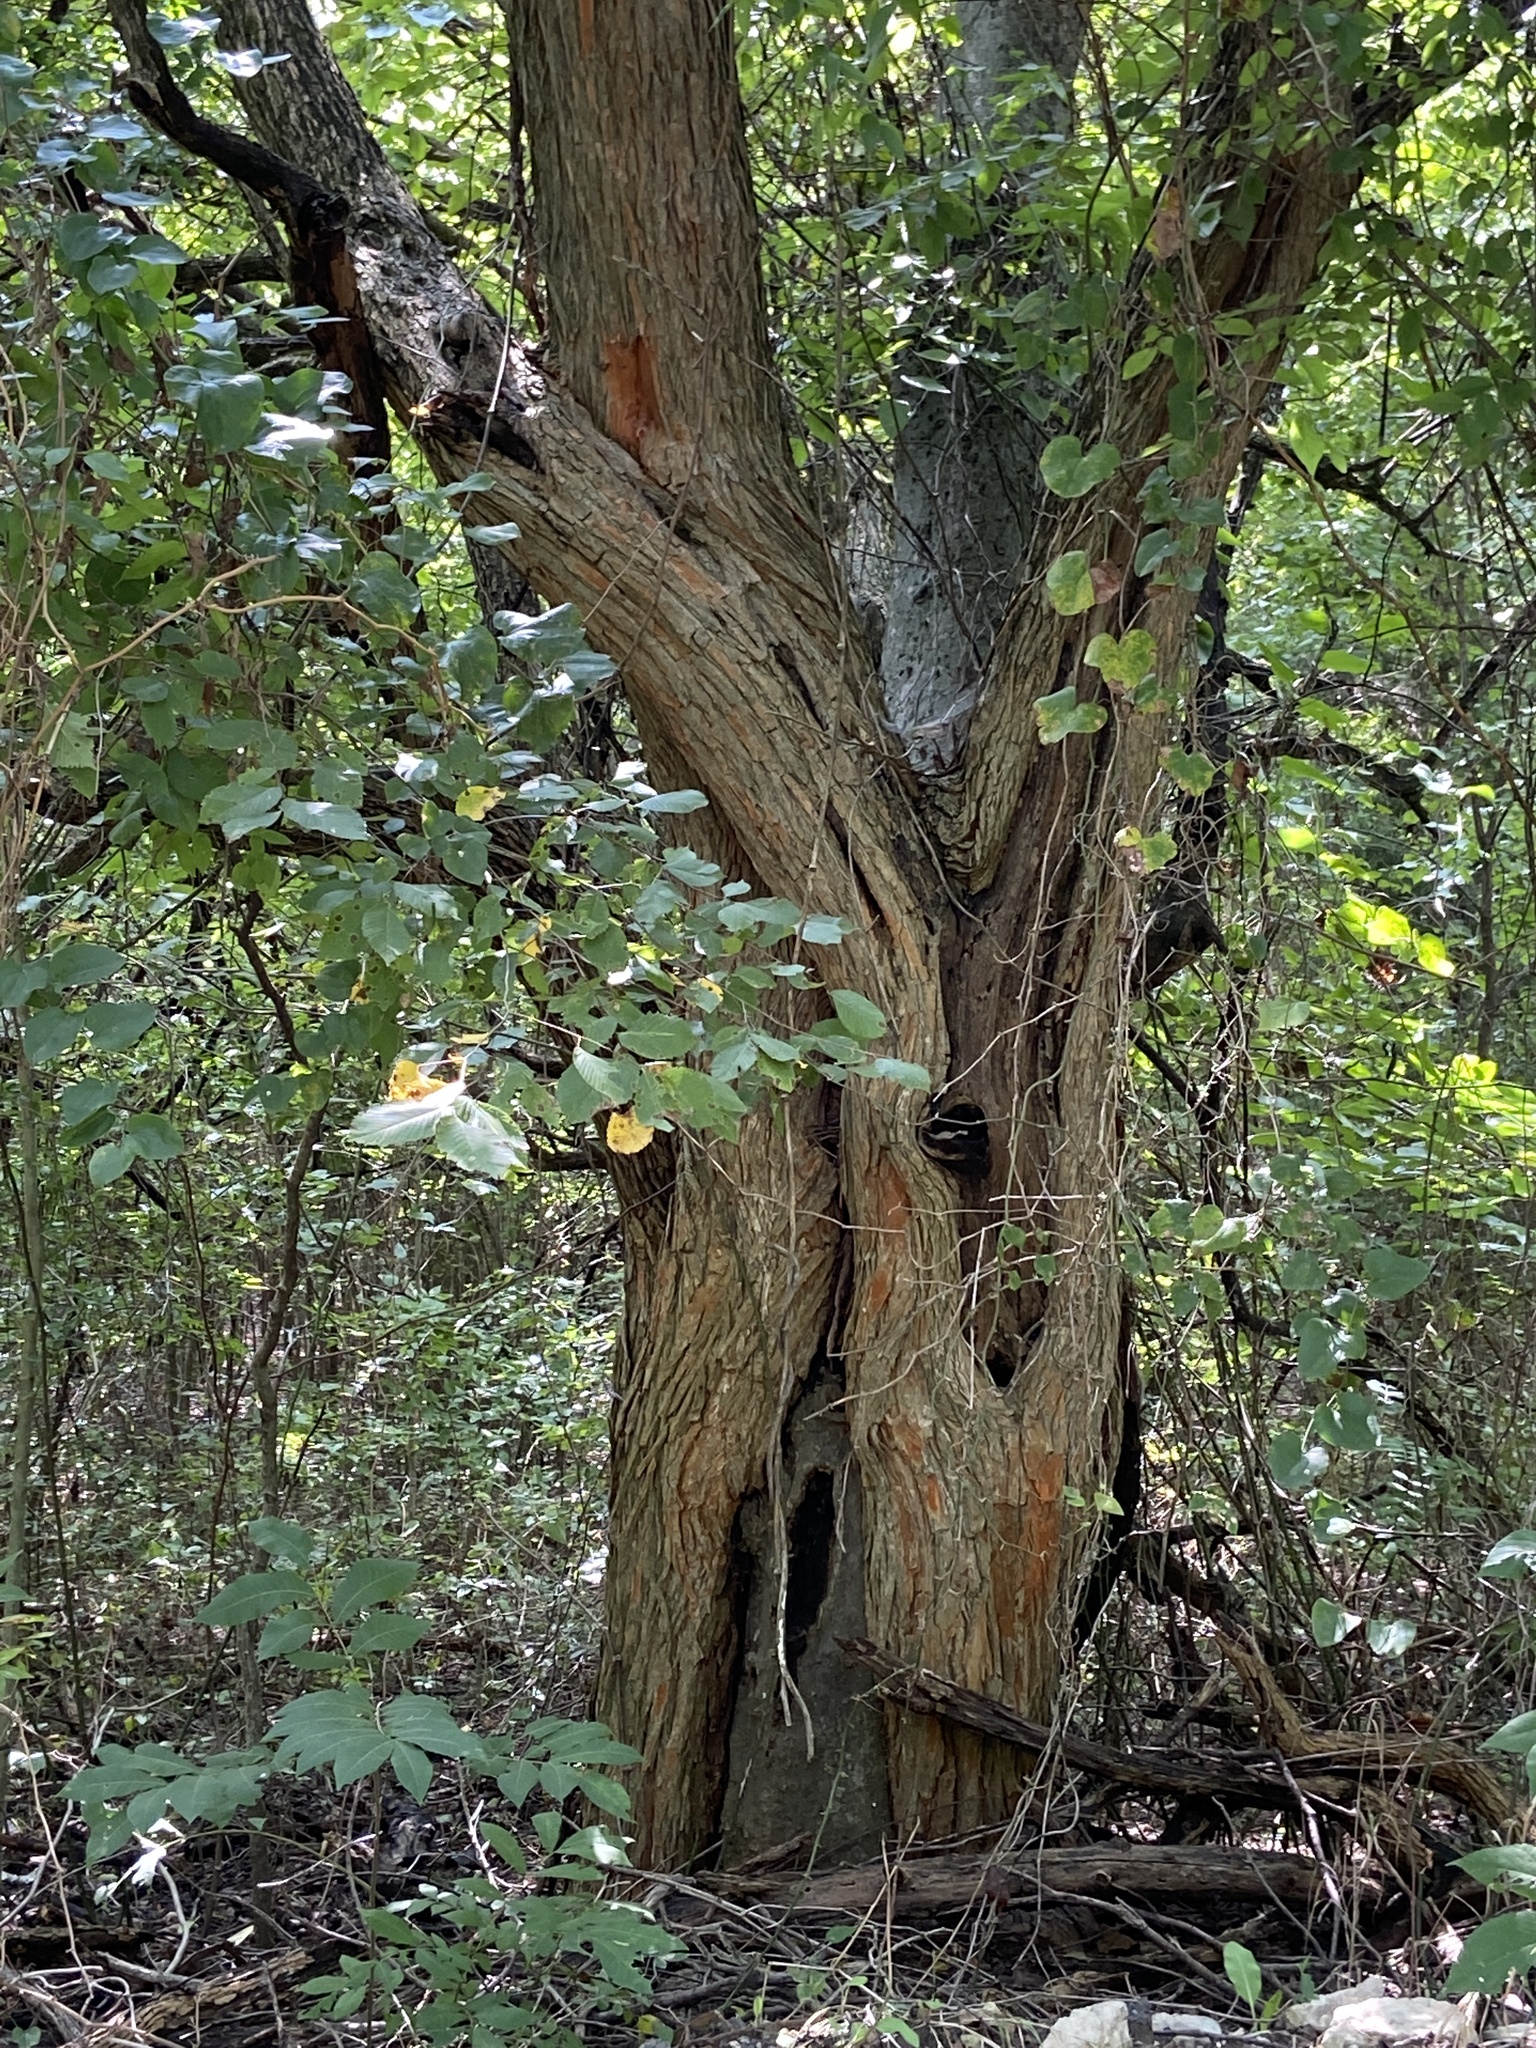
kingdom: Plantae
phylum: Tracheophyta
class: Magnoliopsida
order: Rosales
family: Moraceae
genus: Maclura
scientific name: Maclura pomifera
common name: Osage-orange
